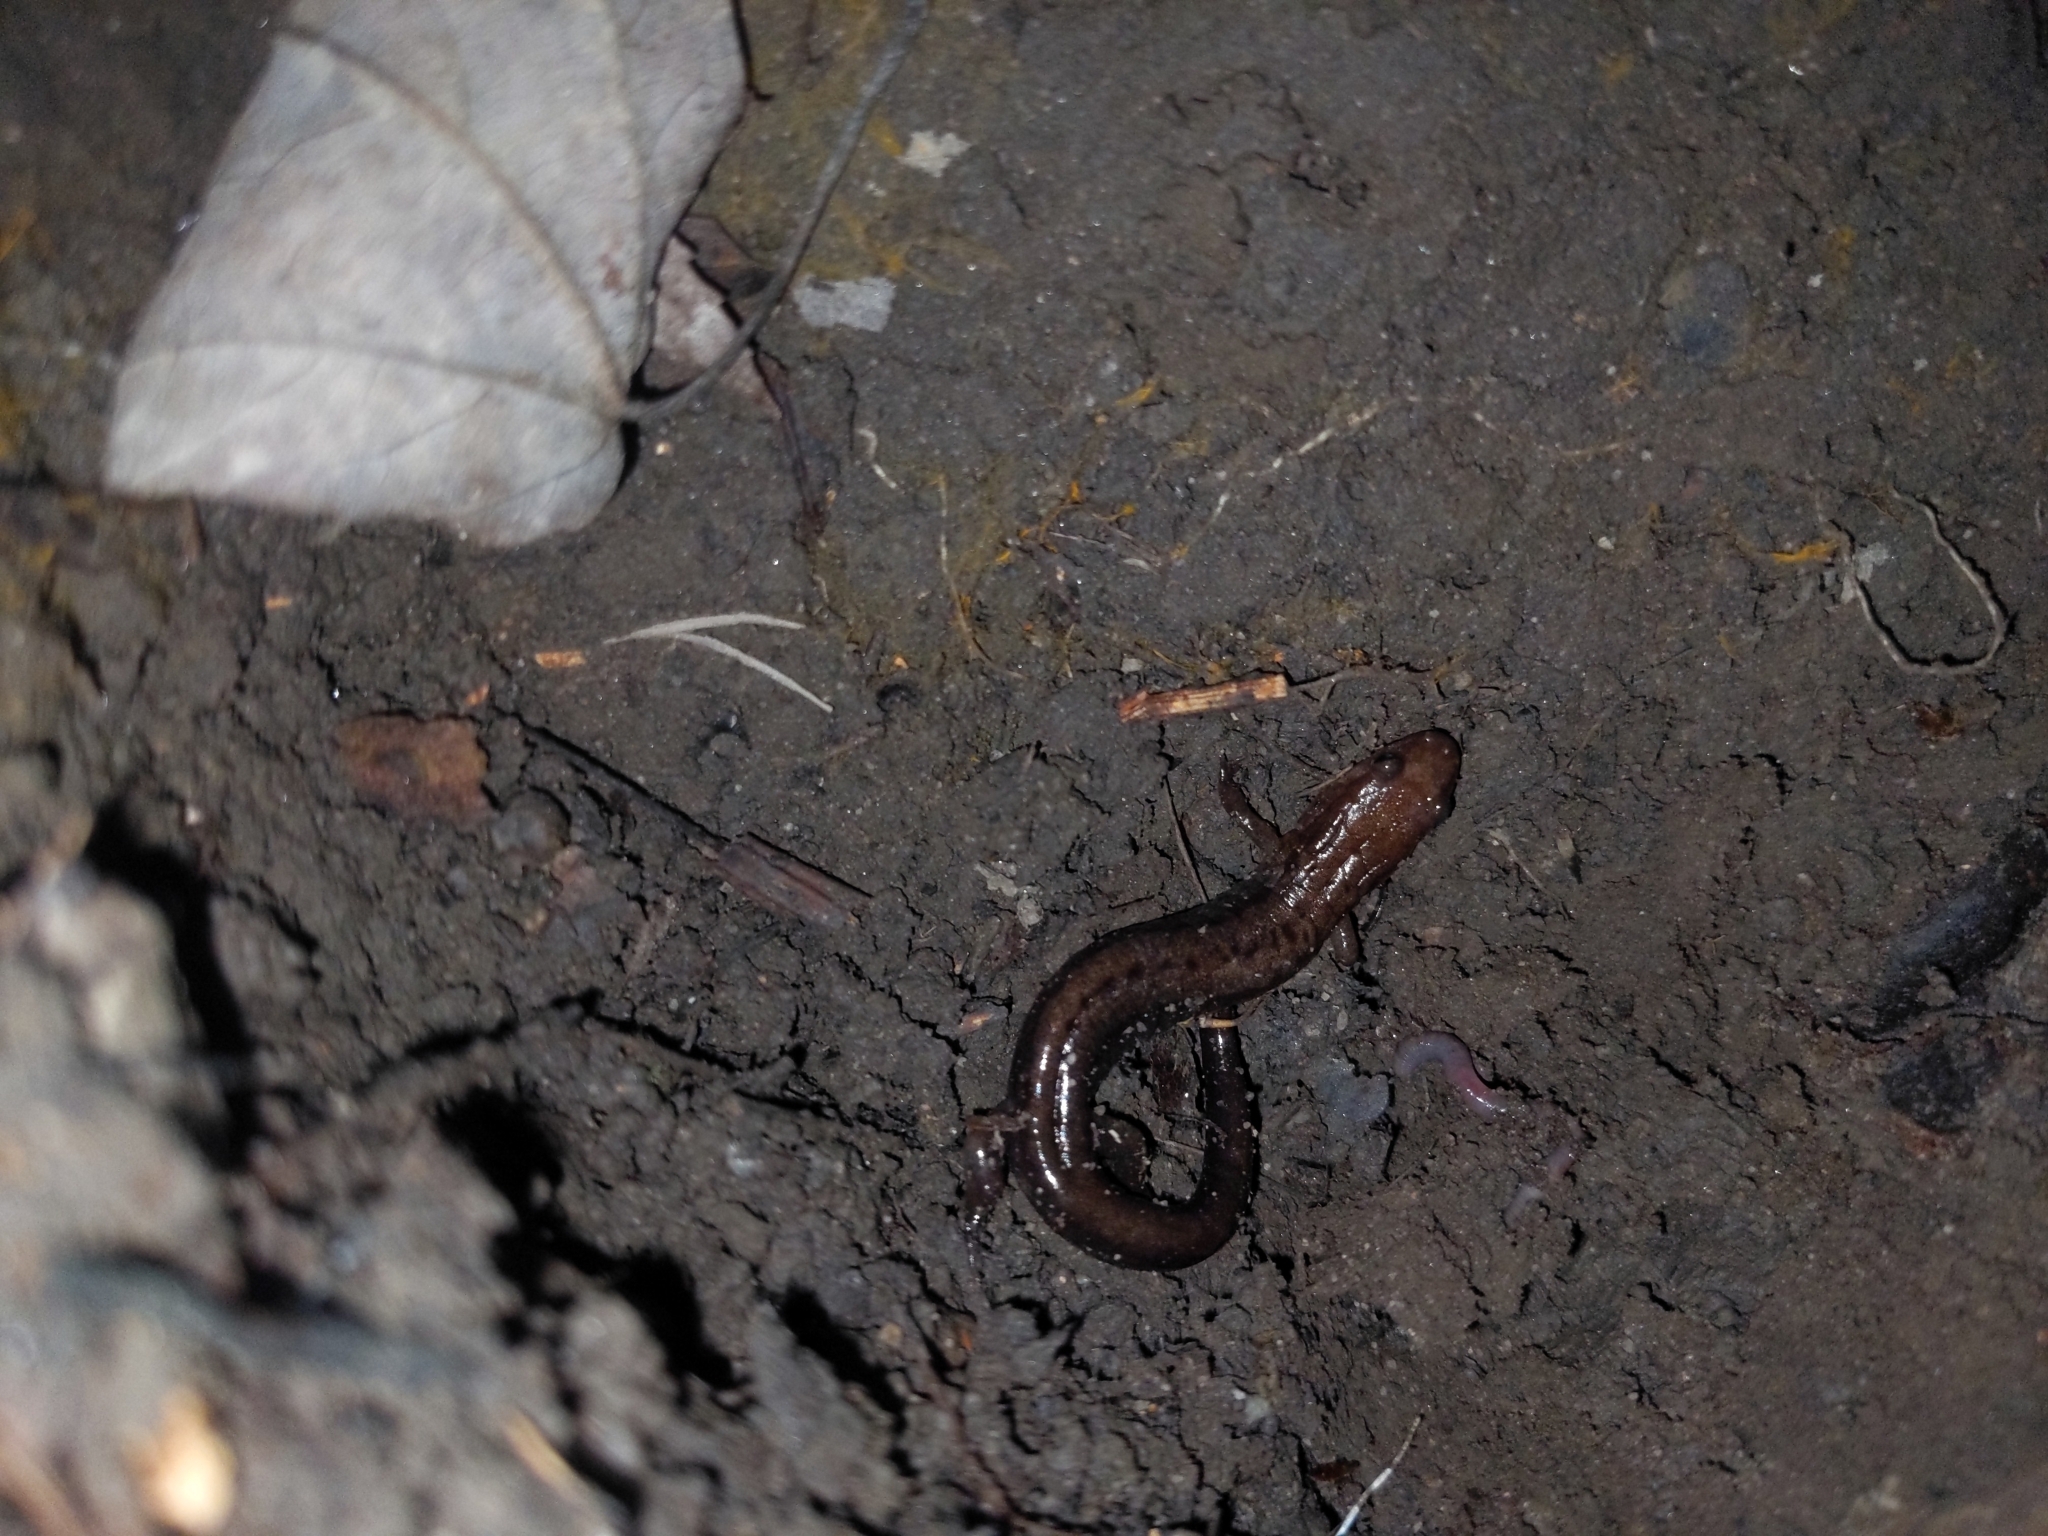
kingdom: Animalia
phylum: Chordata
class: Amphibia
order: Caudata
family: Plethodontidae
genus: Desmognathus
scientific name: Desmognathus ochrophaeus
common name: Allegheny mountain dusky salamander
